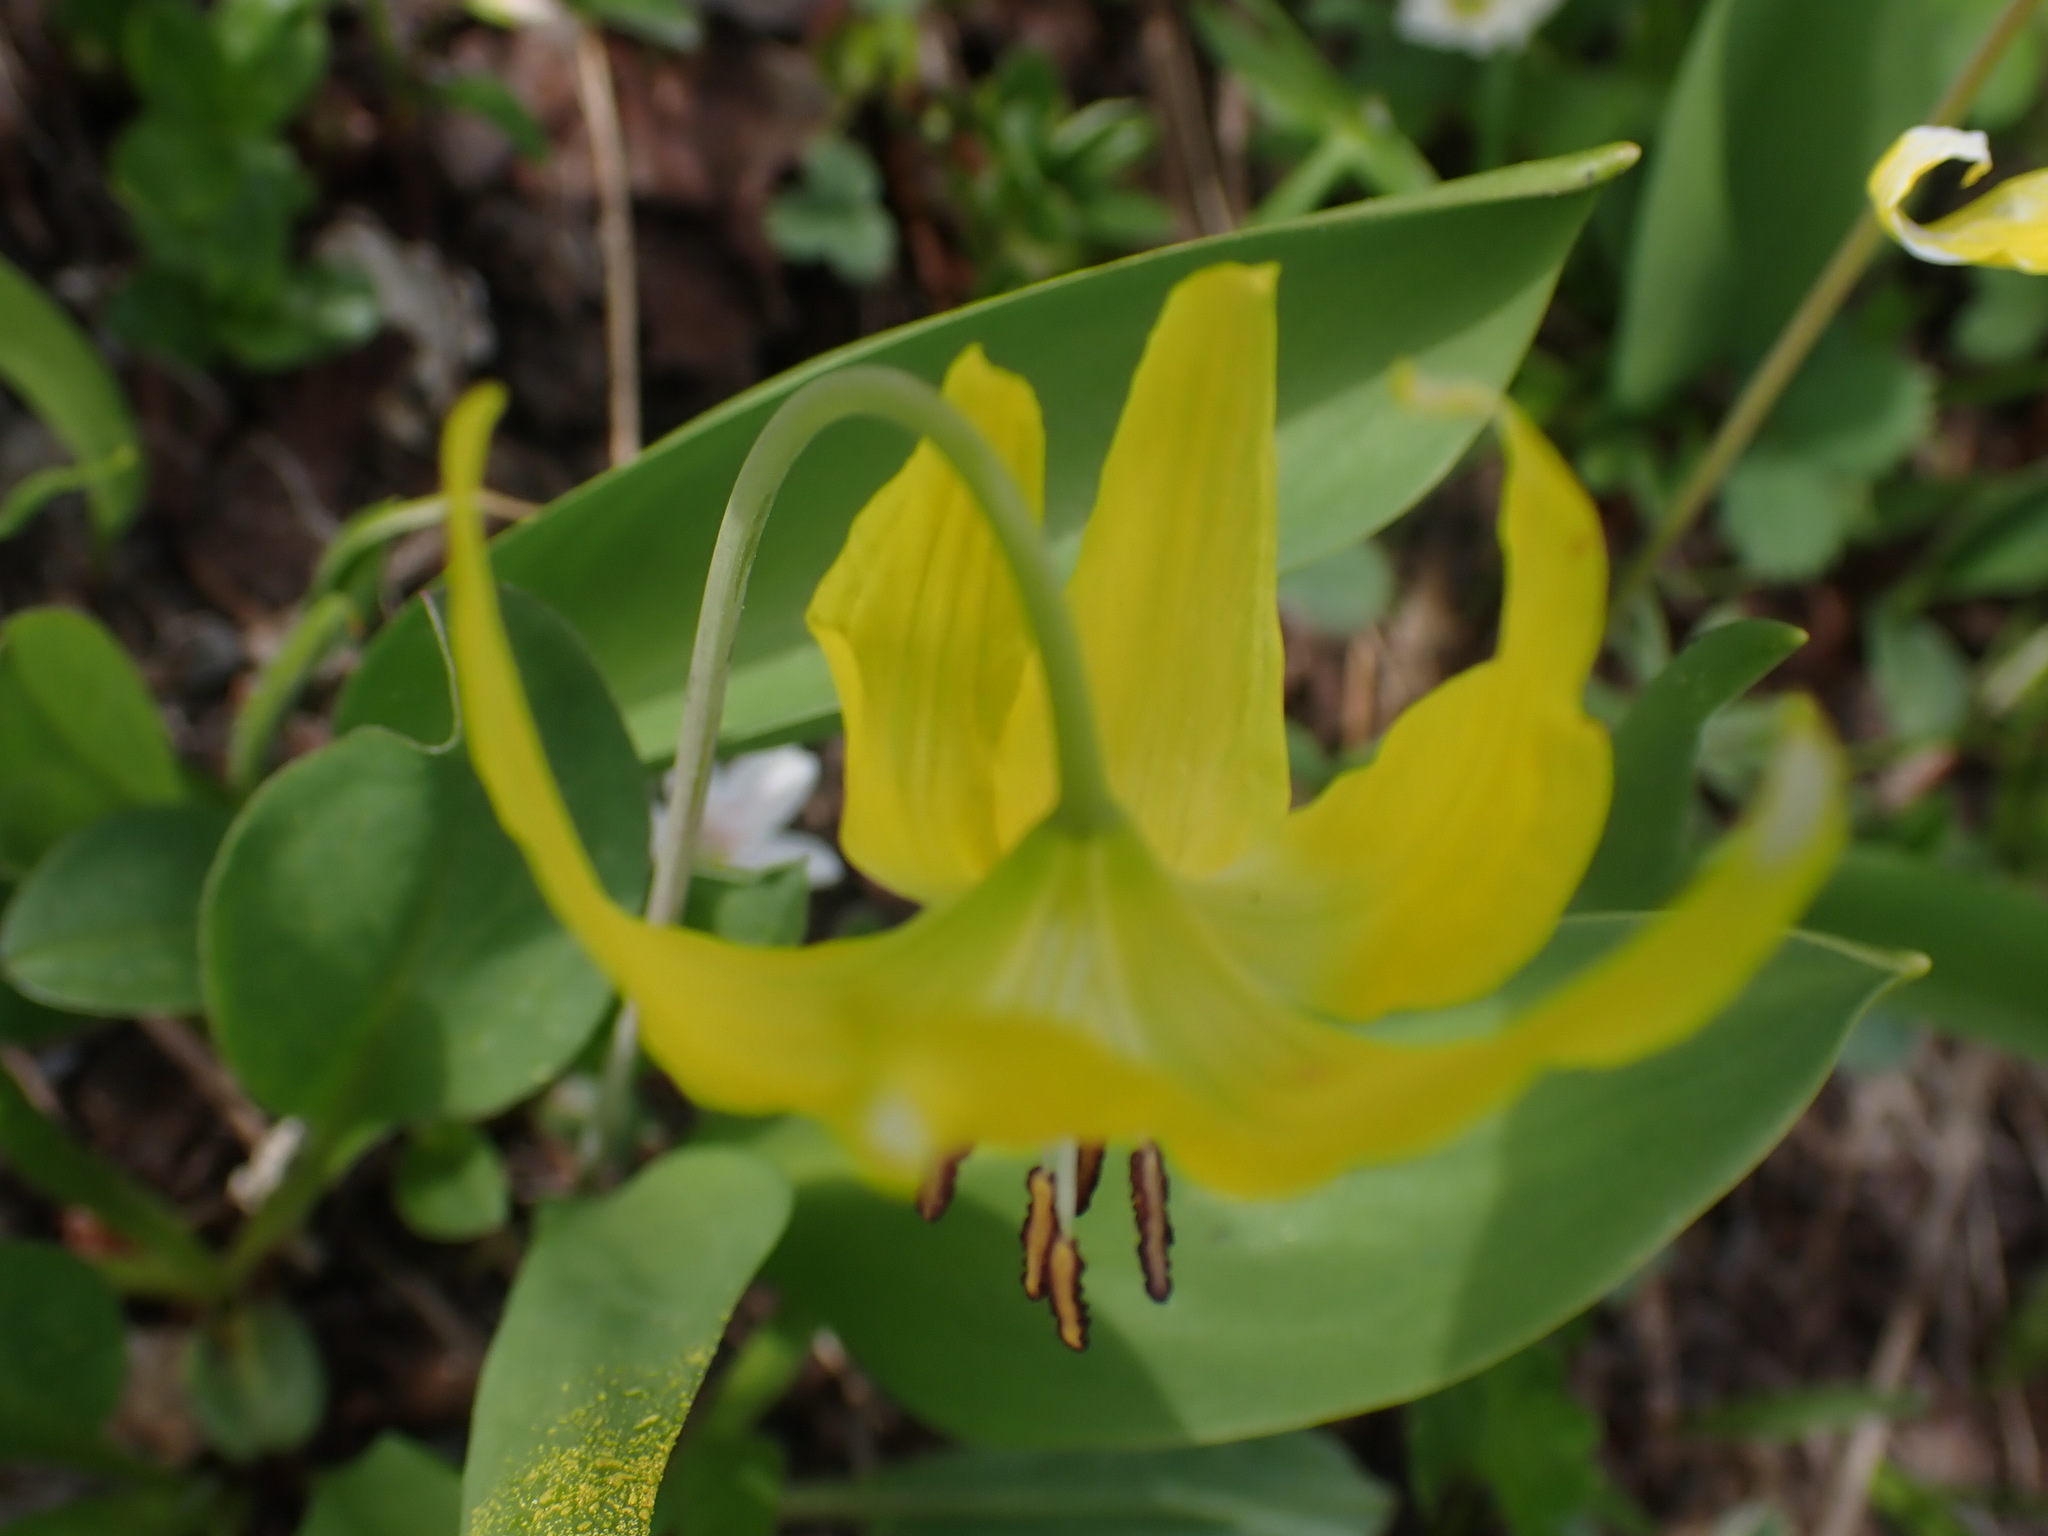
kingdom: Plantae
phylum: Tracheophyta
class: Liliopsida
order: Liliales
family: Liliaceae
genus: Erythronium
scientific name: Erythronium grandiflorum
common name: Avalanche-lily
